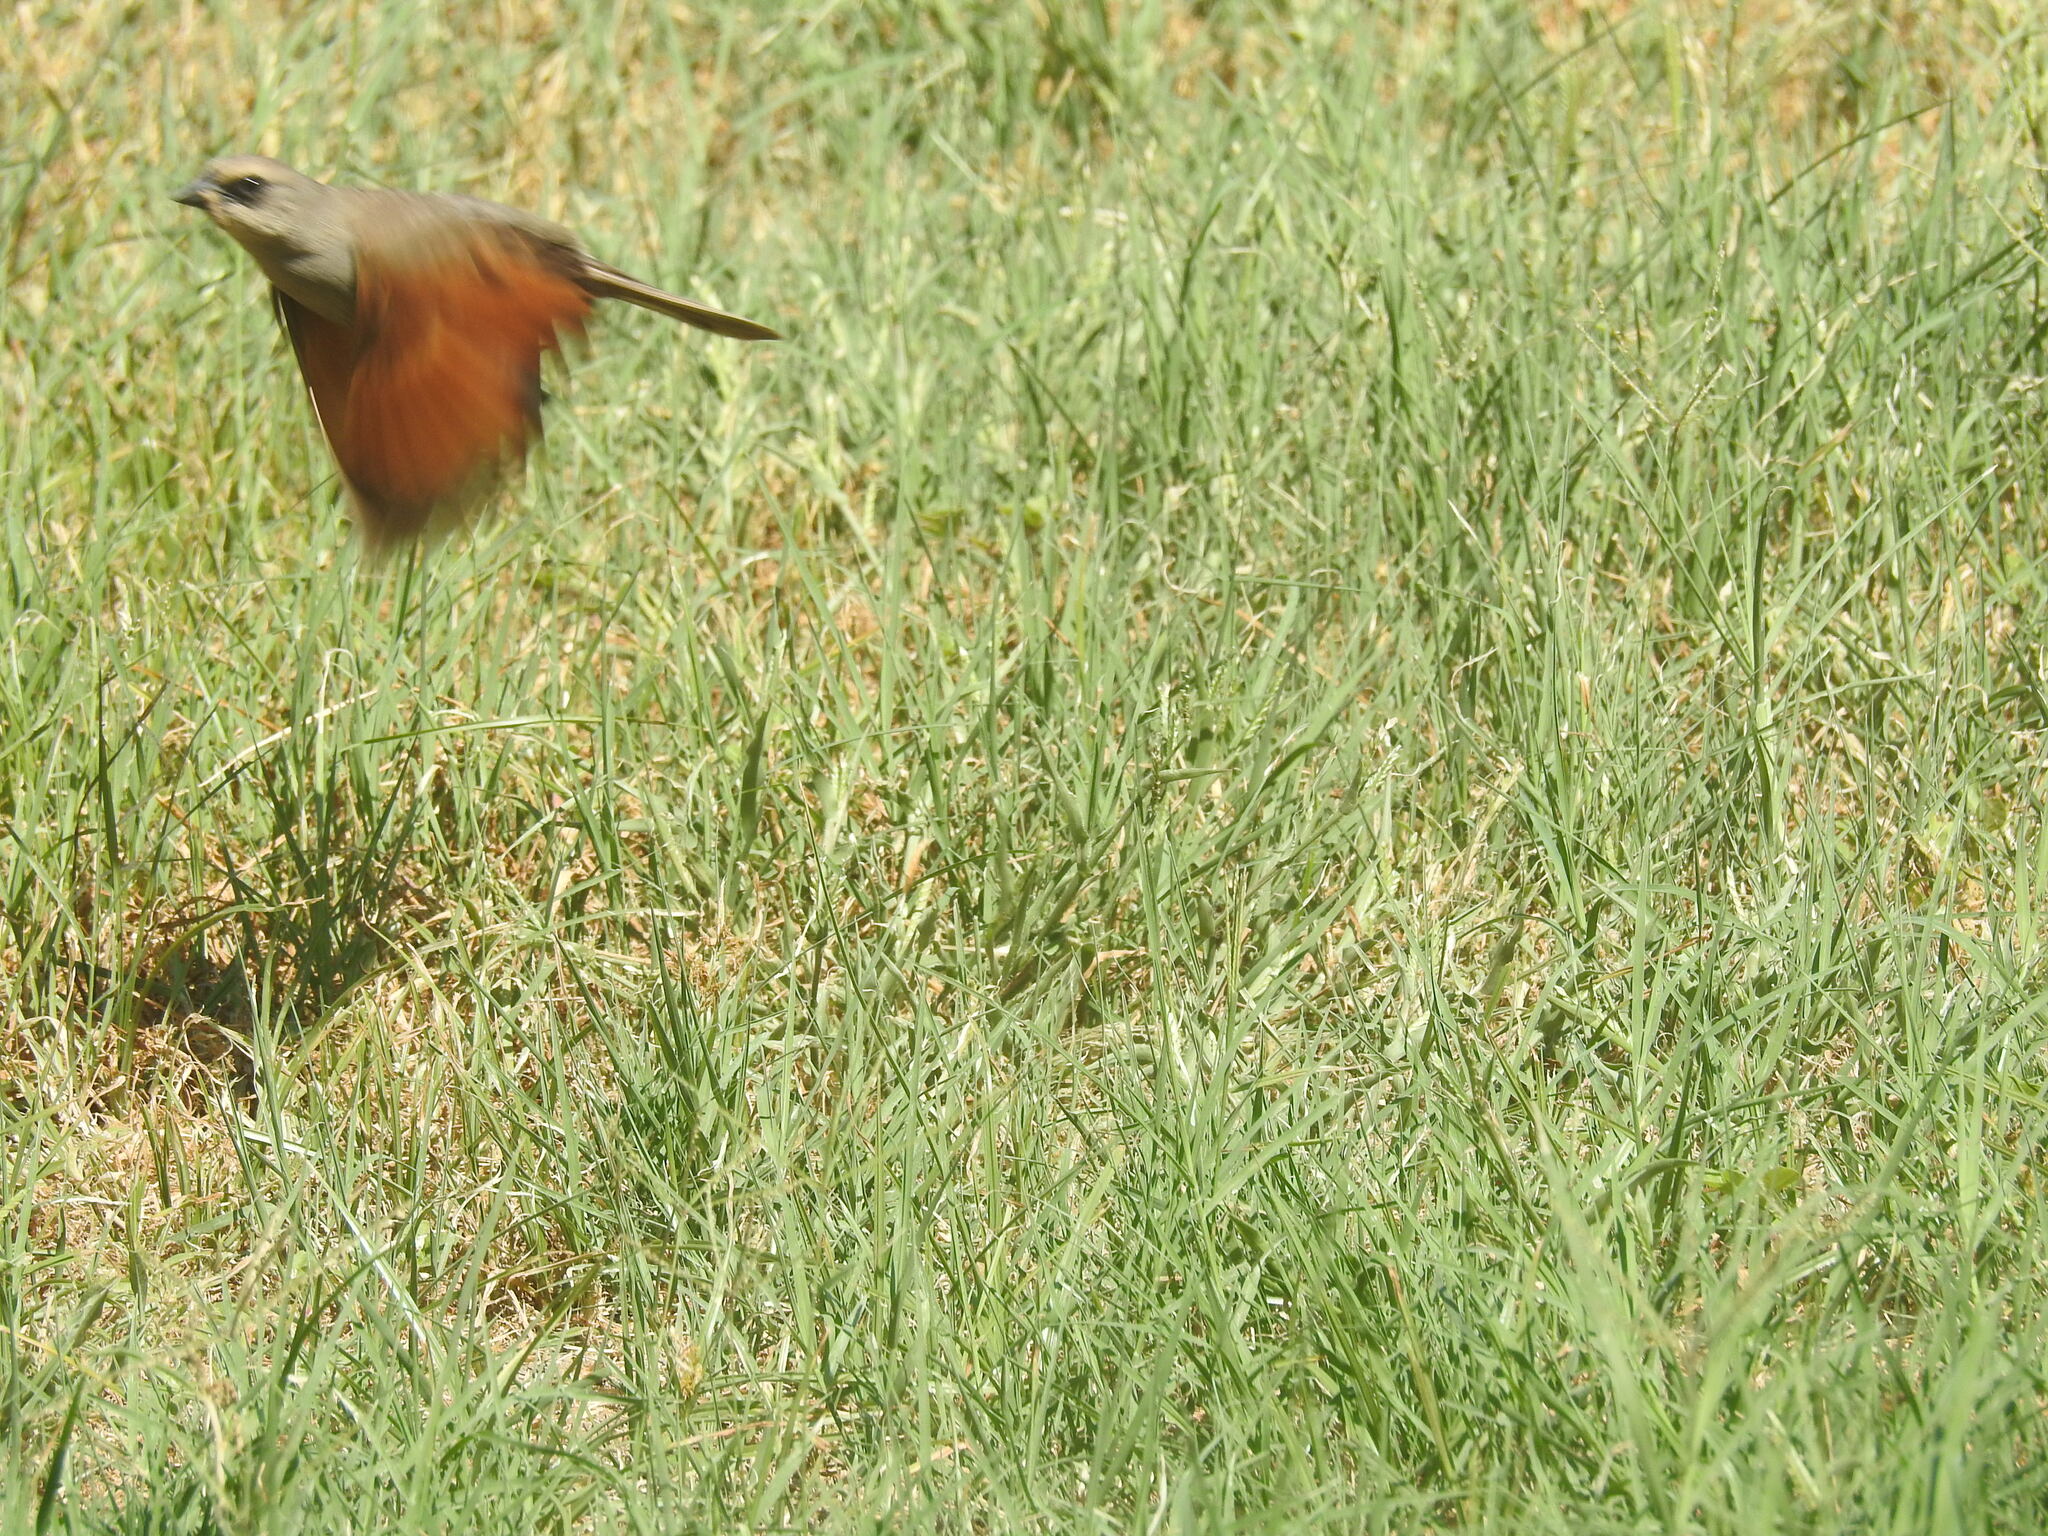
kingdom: Animalia
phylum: Chordata
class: Aves
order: Passeriformes
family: Icteridae
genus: Agelaioides
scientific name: Agelaioides badius
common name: Baywing
